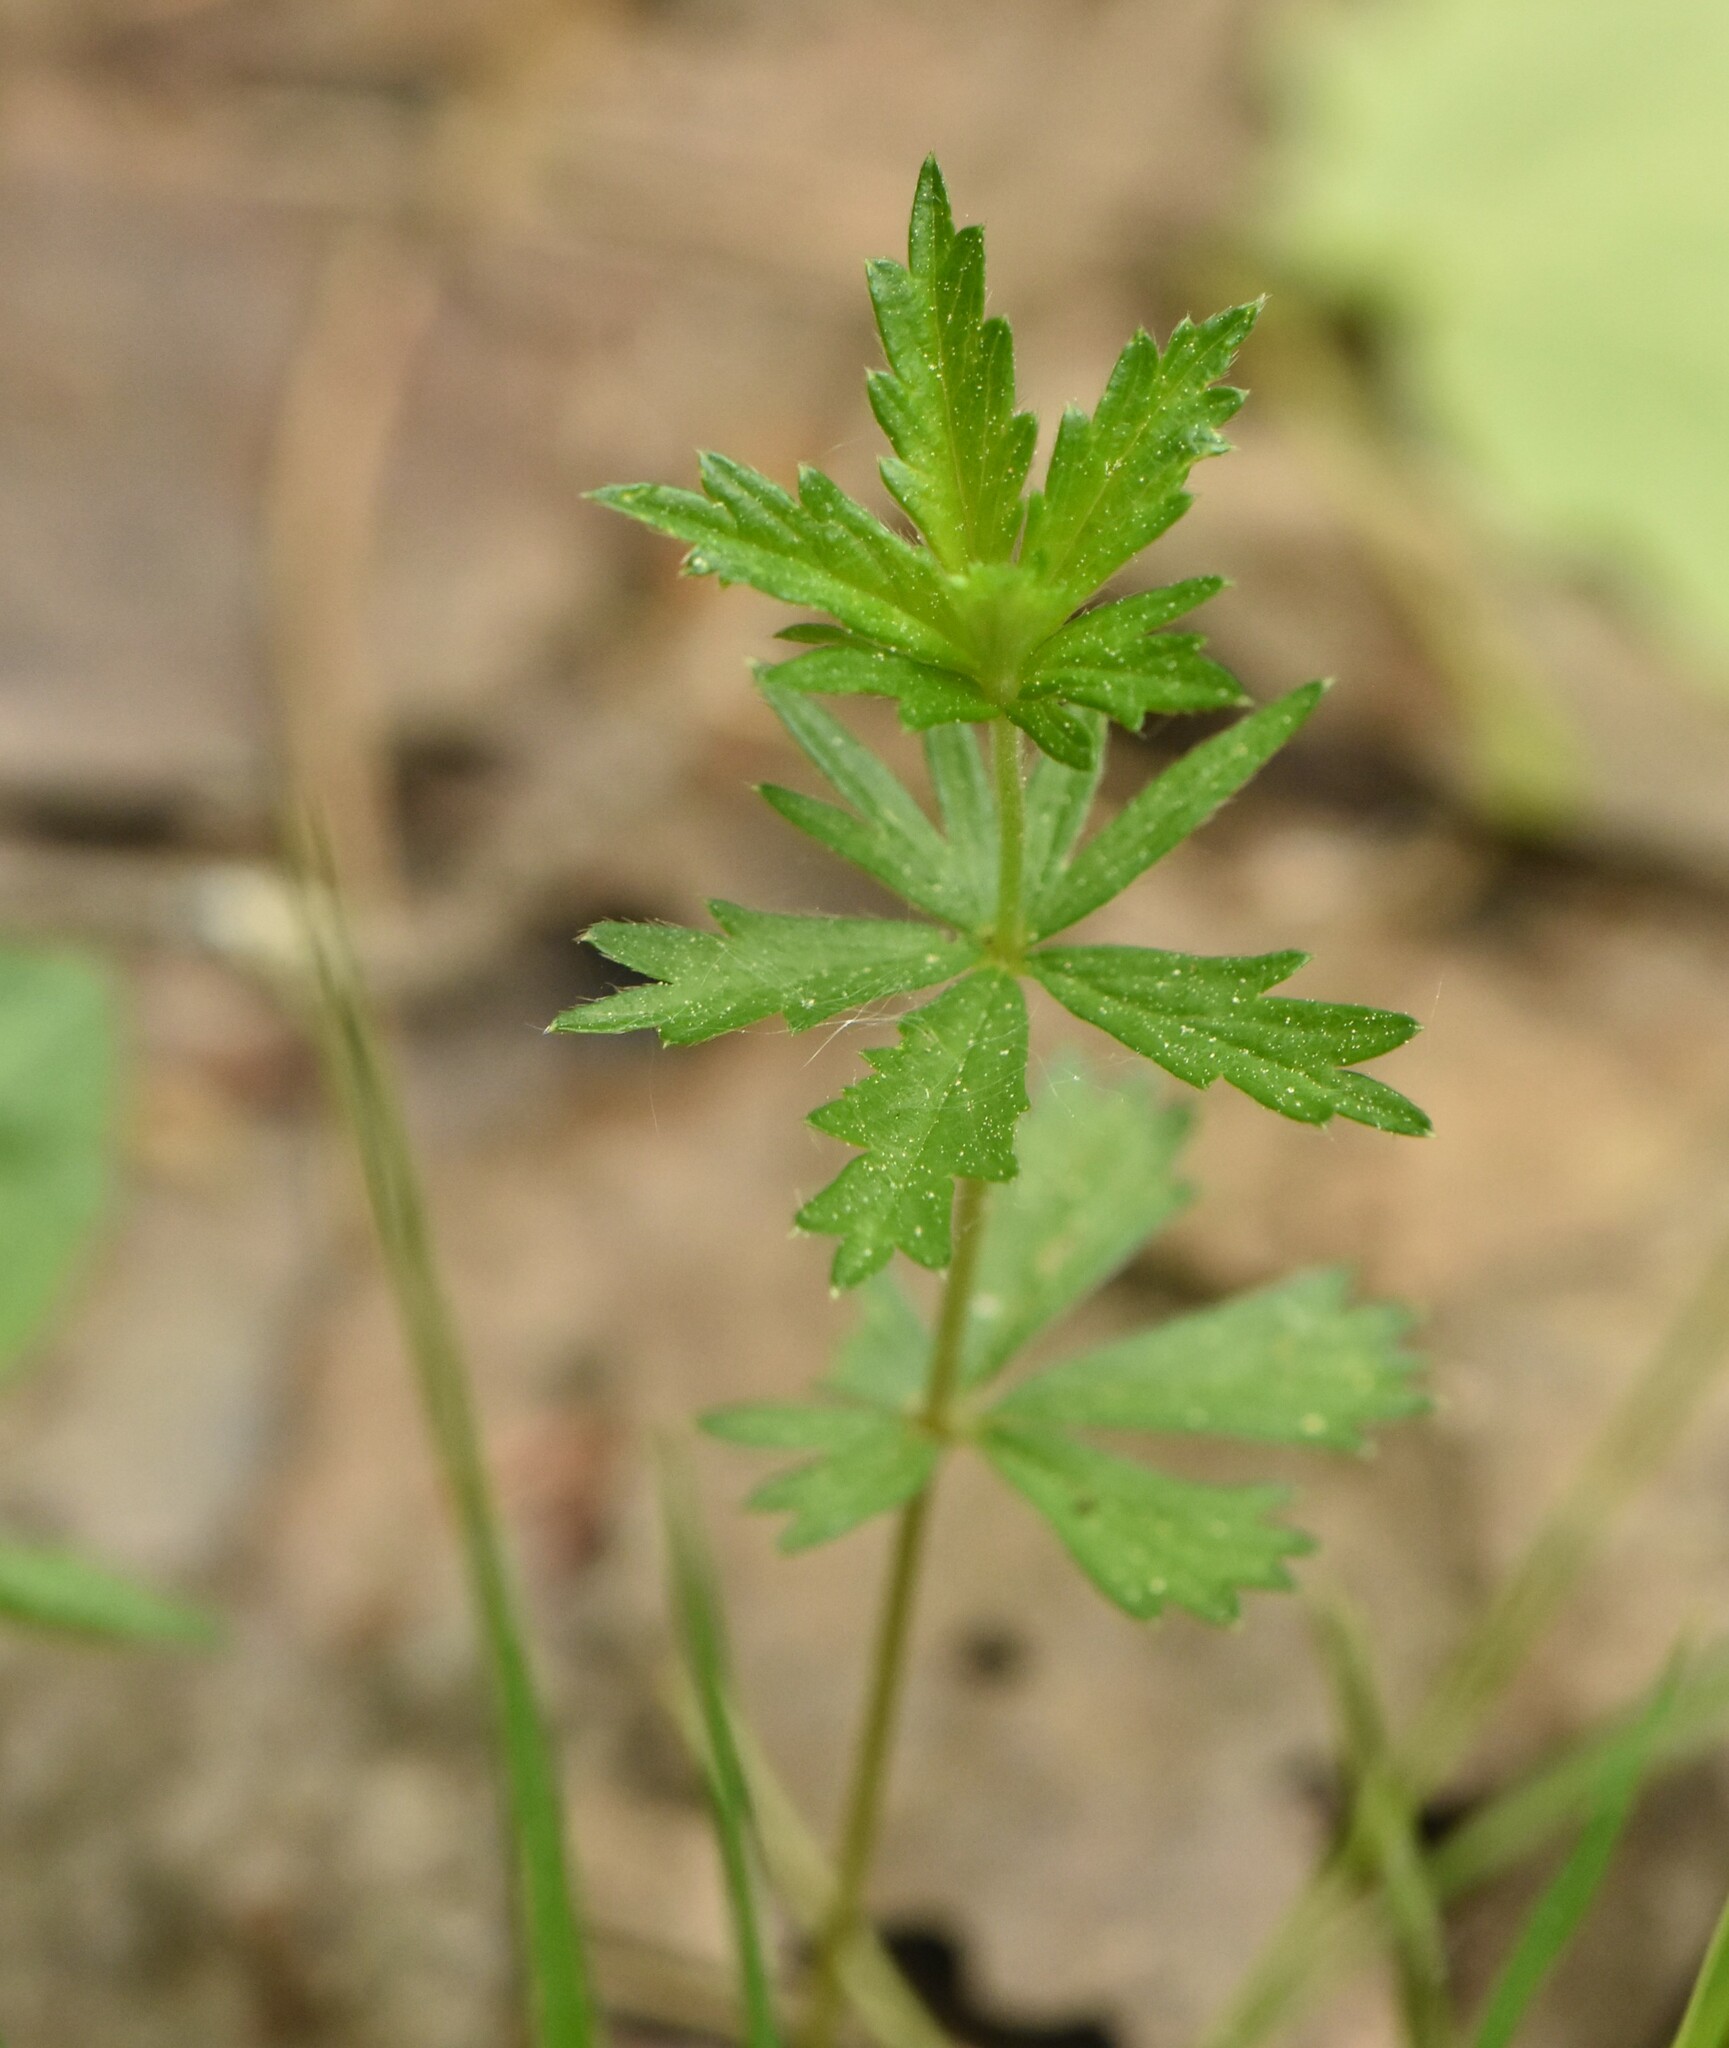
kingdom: Plantae
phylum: Tracheophyta
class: Magnoliopsida
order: Rosales
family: Rosaceae
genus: Potentilla
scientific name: Potentilla erecta
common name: Tormentil
